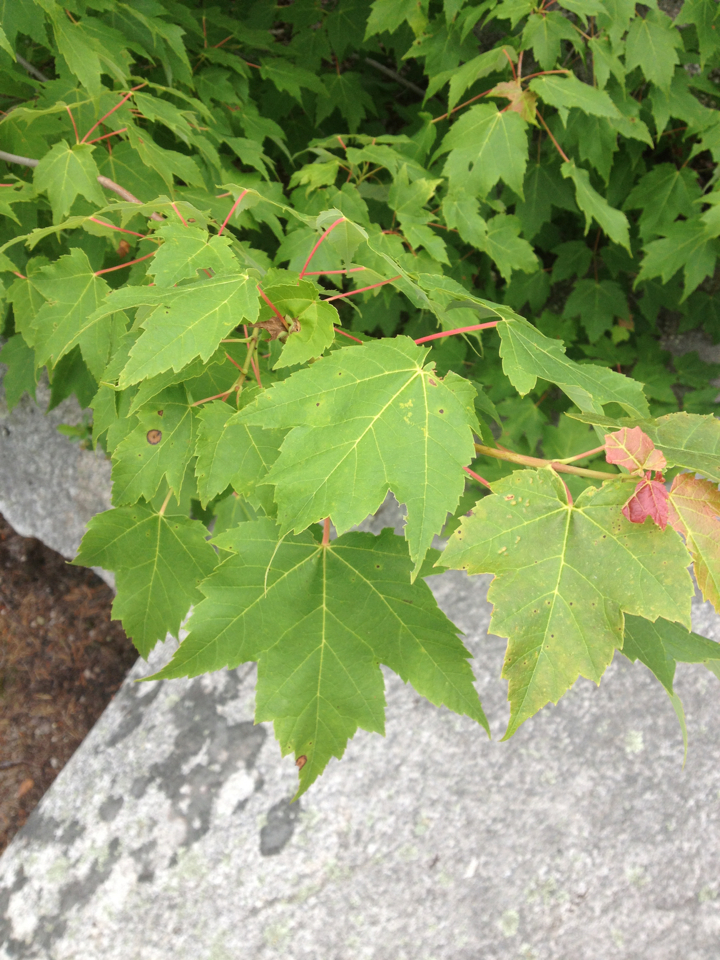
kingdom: Plantae
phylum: Tracheophyta
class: Magnoliopsida
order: Sapindales
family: Sapindaceae
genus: Acer
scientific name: Acer rubrum
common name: Red maple
